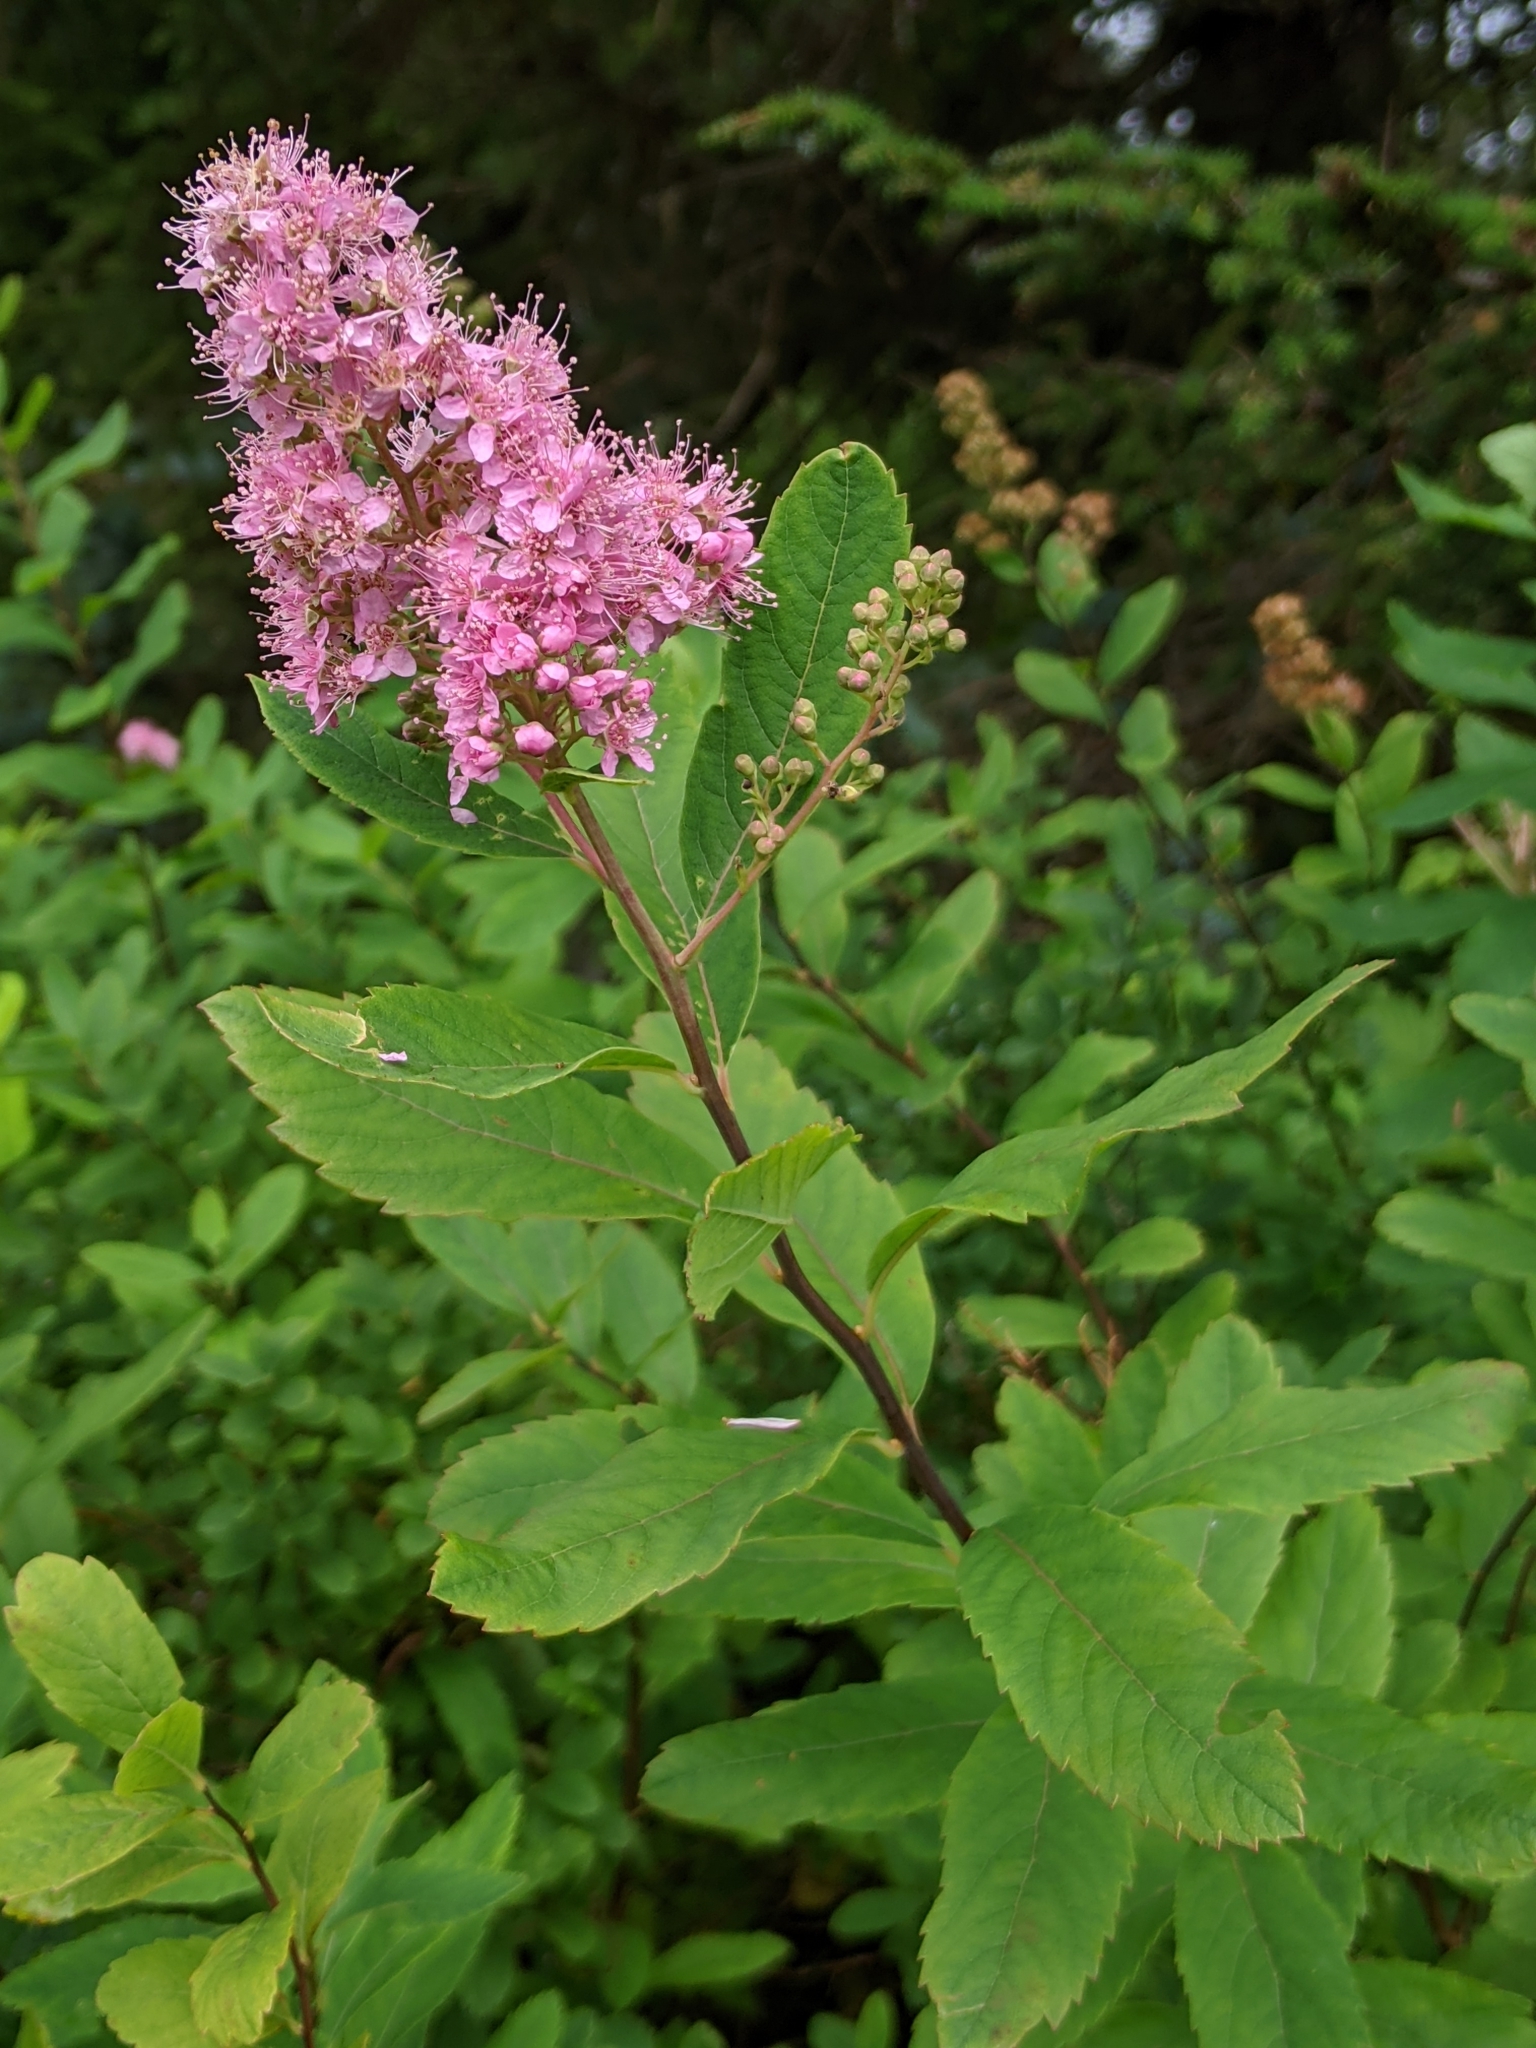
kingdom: Plantae
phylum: Tracheophyta
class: Magnoliopsida
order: Rosales
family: Rosaceae
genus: Spiraea
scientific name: Spiraea douglasii
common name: Steeplebush
